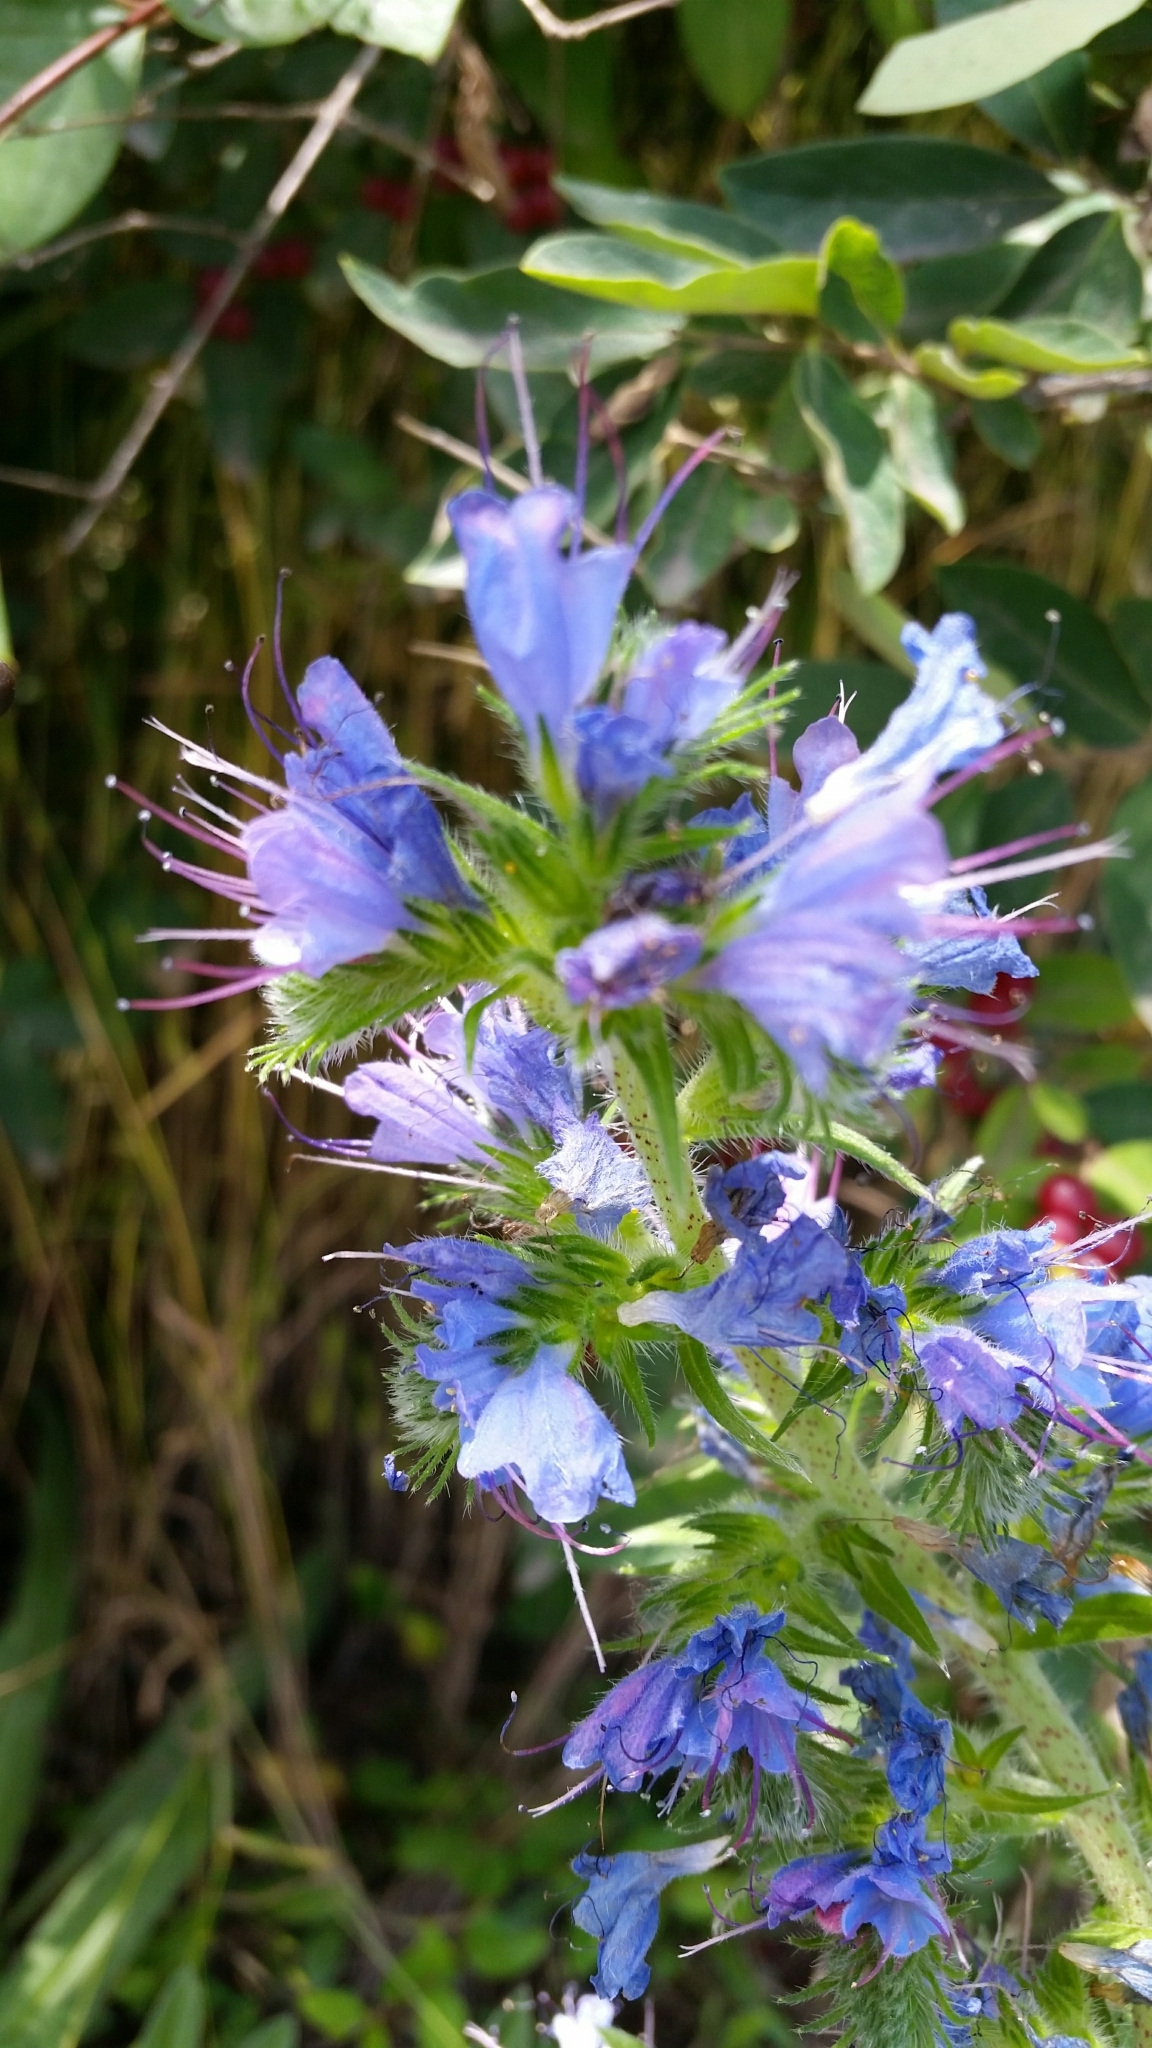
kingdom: Plantae
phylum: Tracheophyta
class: Magnoliopsida
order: Boraginales
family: Boraginaceae
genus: Echium
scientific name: Echium vulgare
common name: Common viper's bugloss
